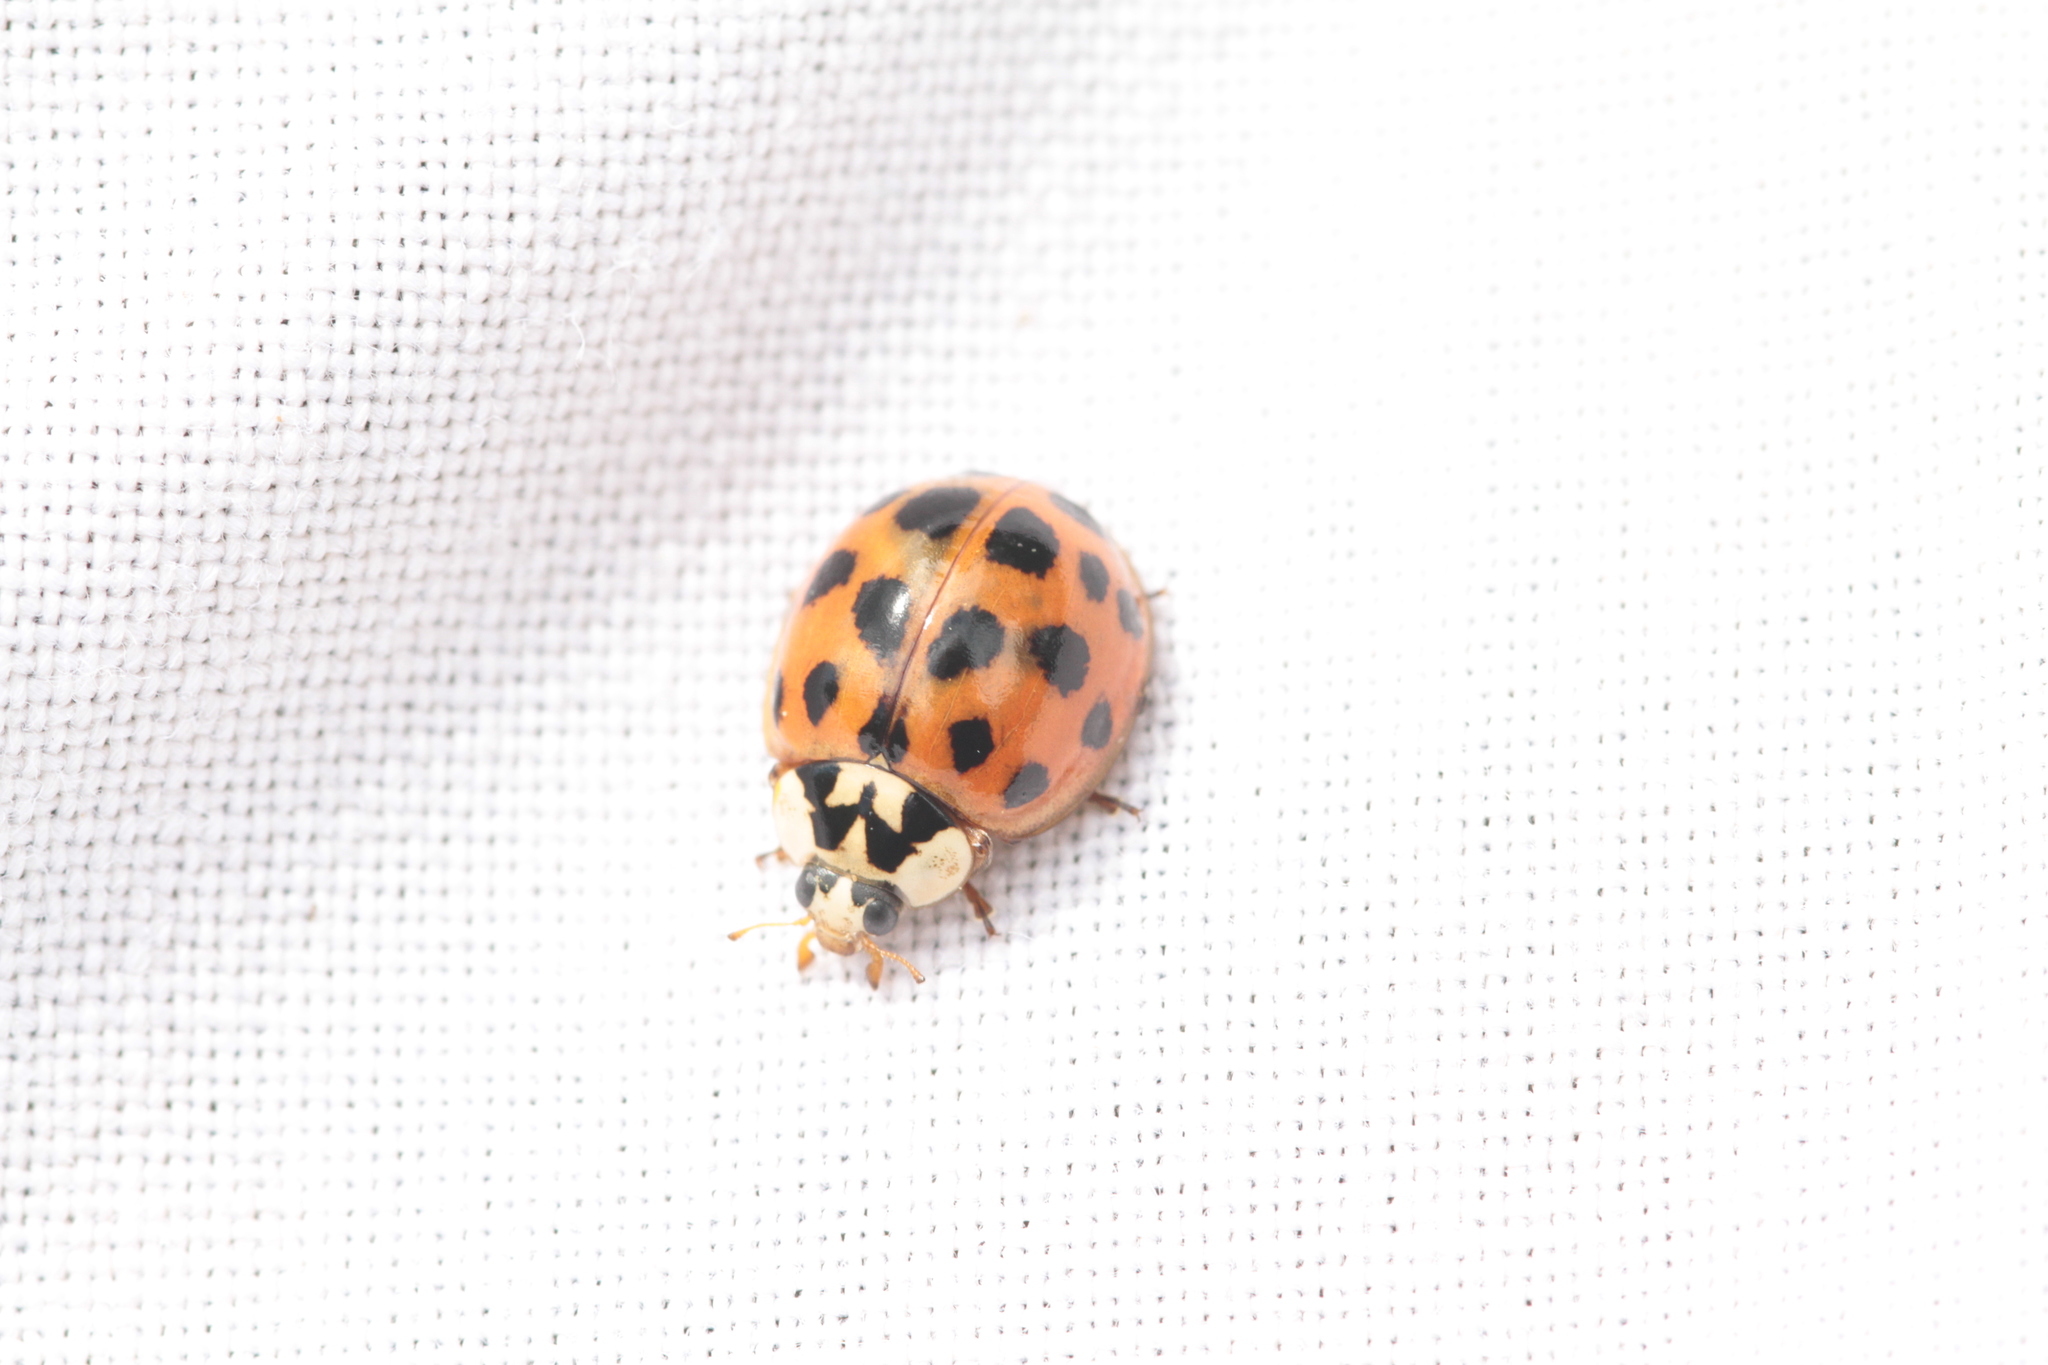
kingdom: Animalia
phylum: Arthropoda
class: Insecta
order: Coleoptera
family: Coccinellidae
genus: Harmonia
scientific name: Harmonia axyridis
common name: Harlequin ladybird
